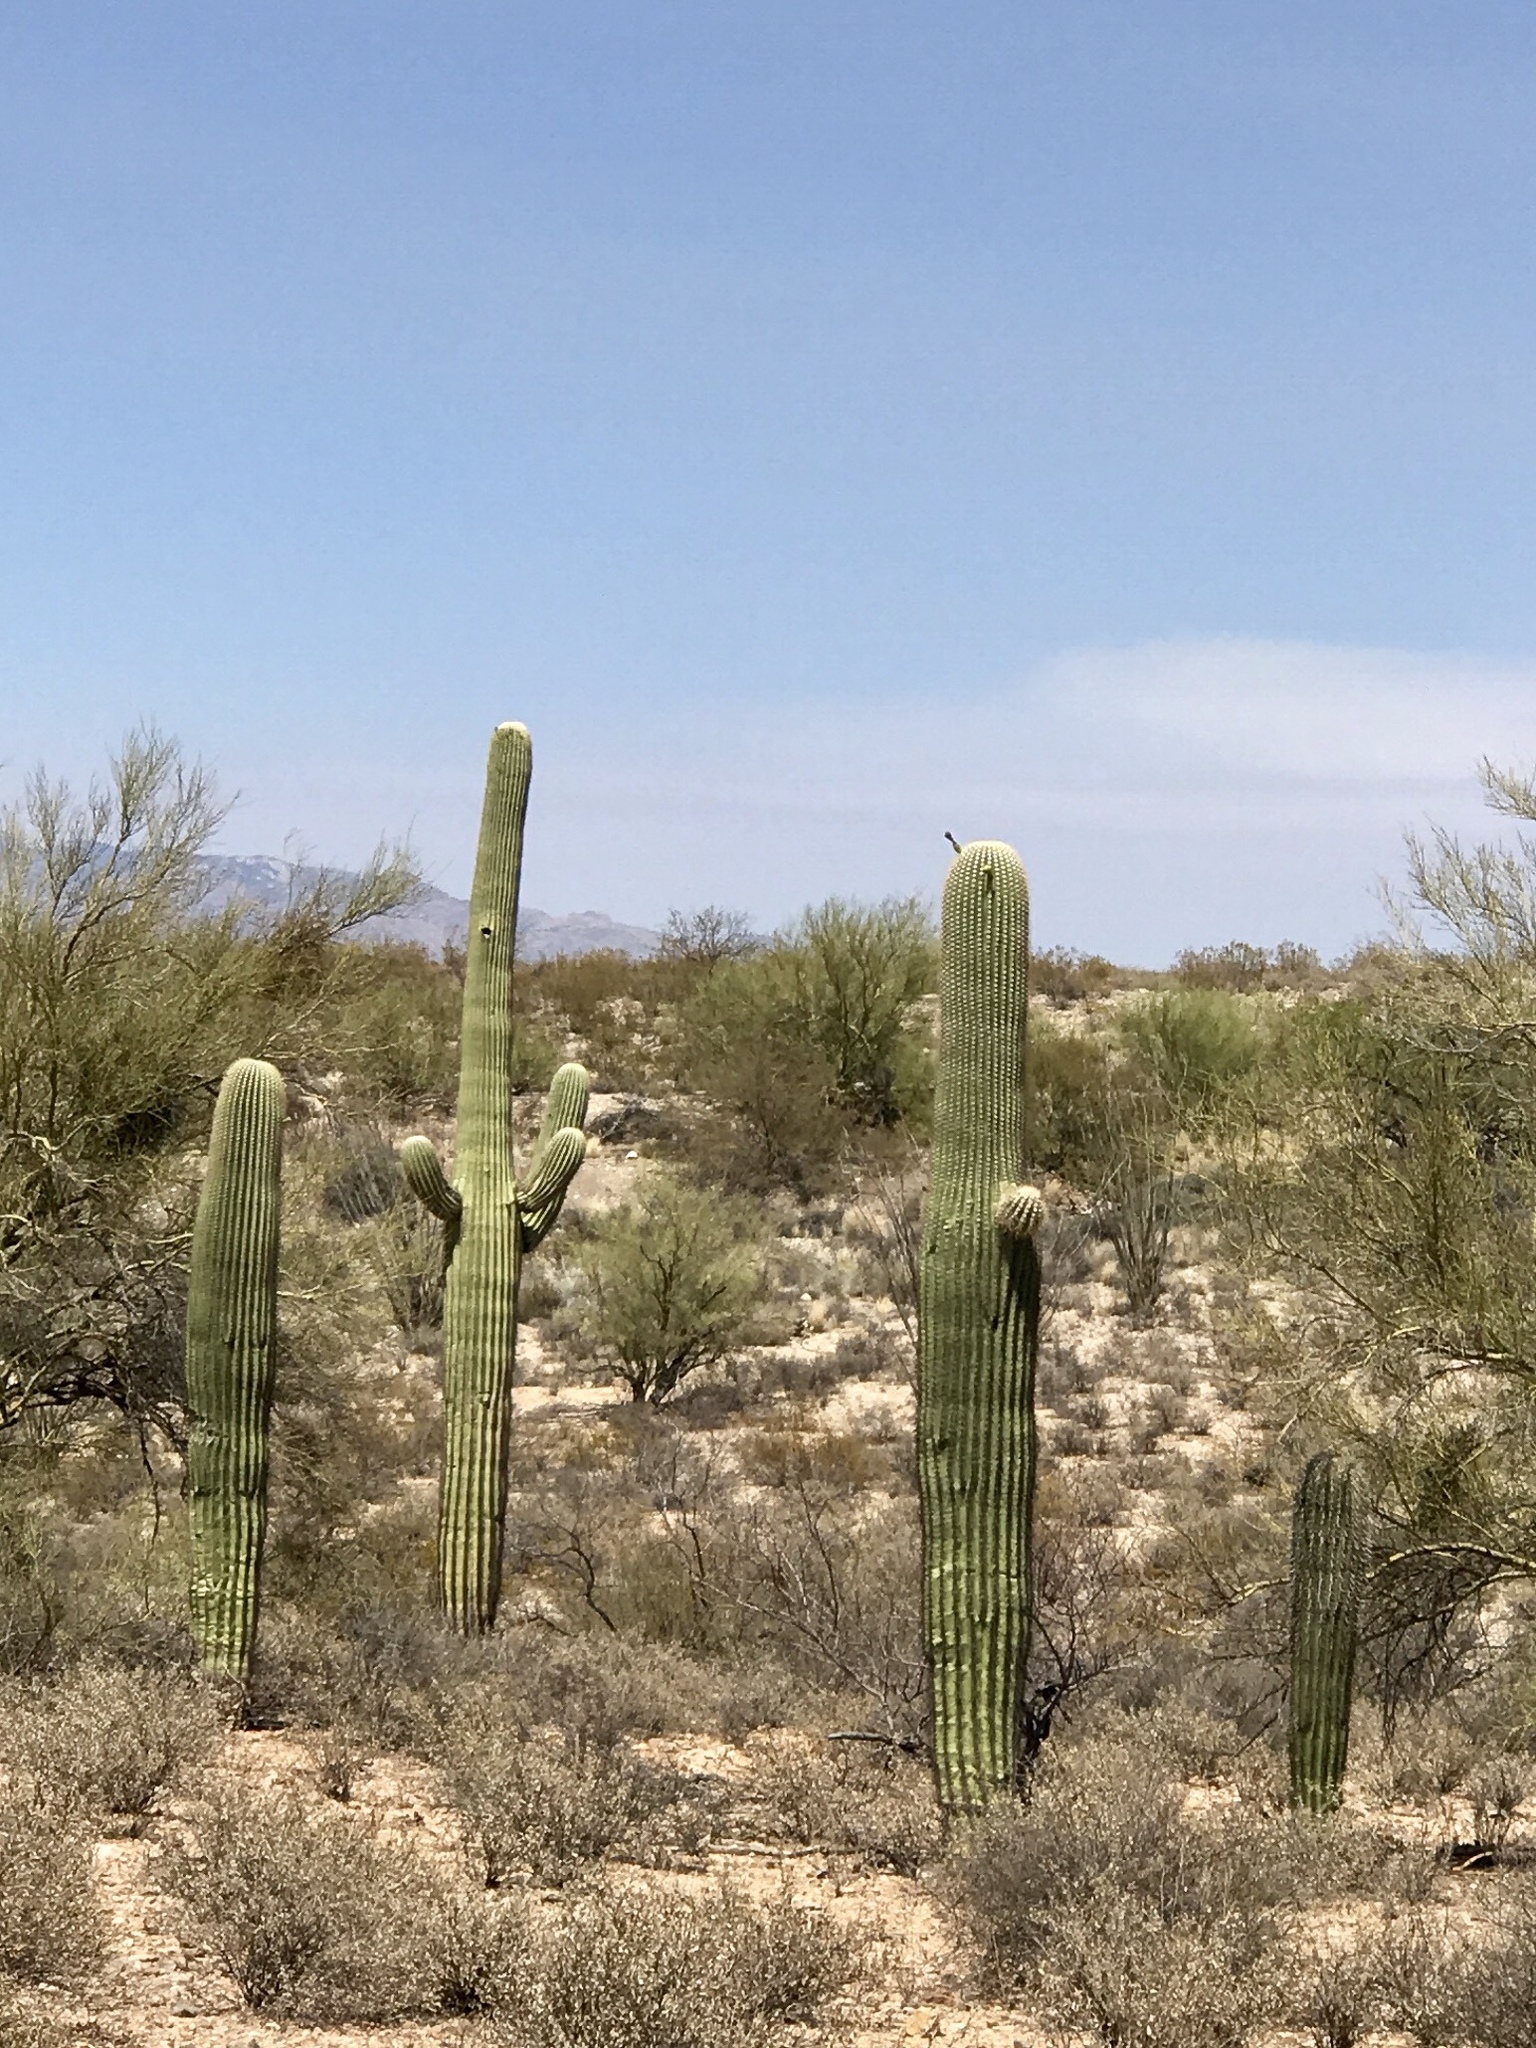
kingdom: Plantae
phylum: Tracheophyta
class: Magnoliopsida
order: Caryophyllales
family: Cactaceae
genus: Carnegiea
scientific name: Carnegiea gigantea
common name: Saguaro
